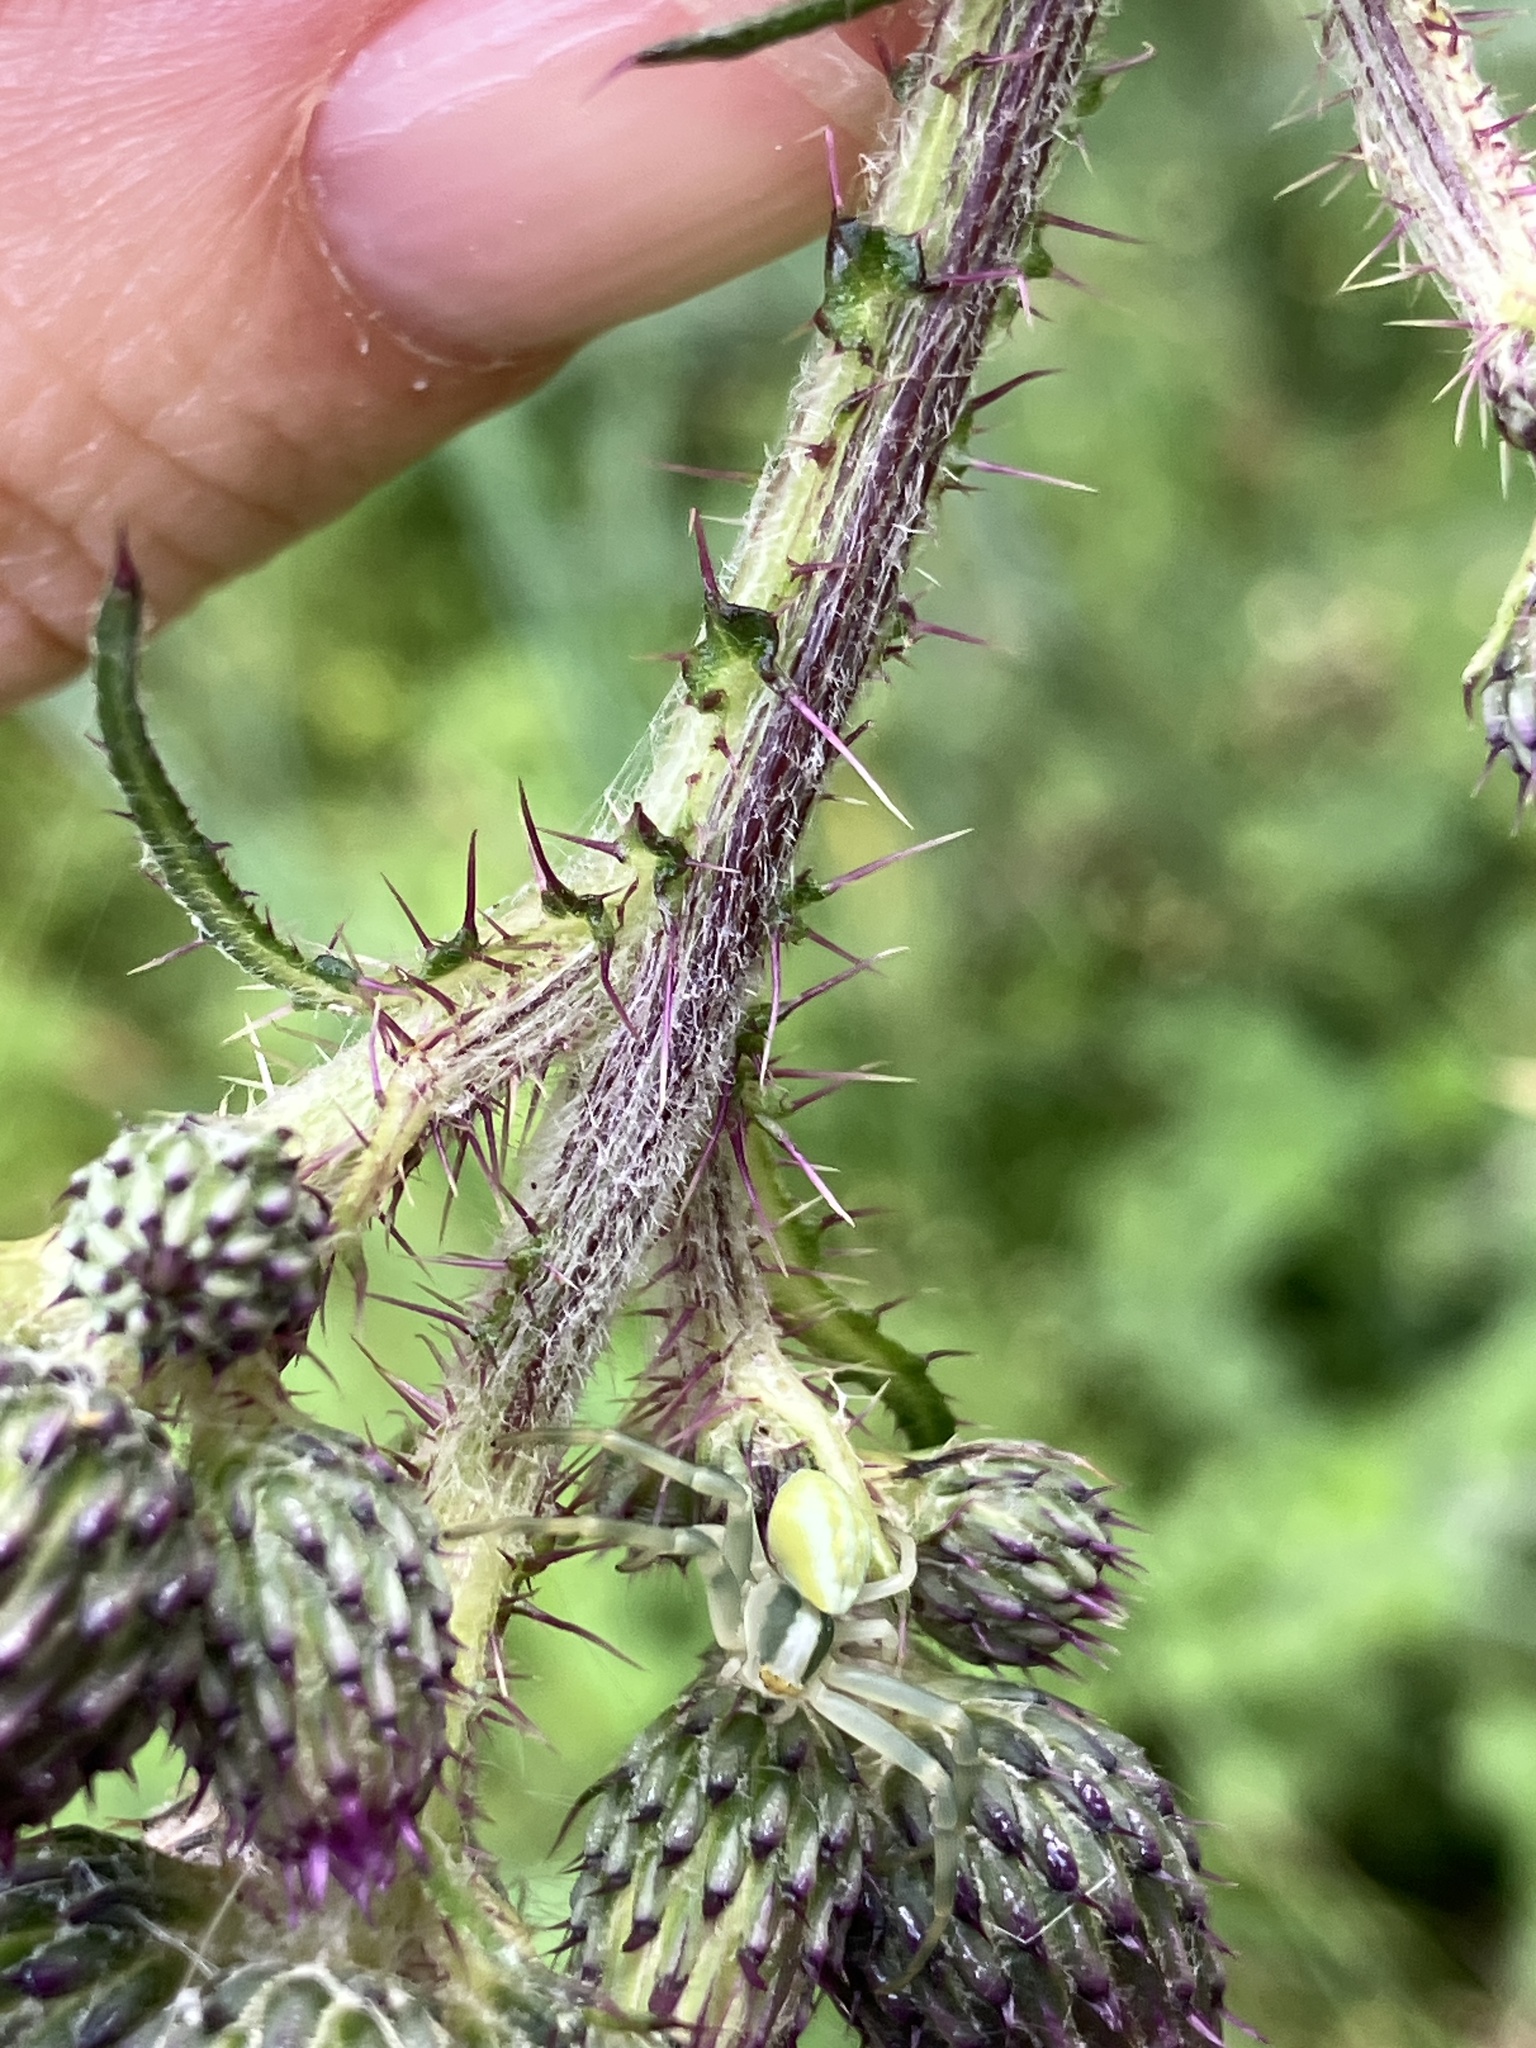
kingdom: Animalia
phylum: Arthropoda
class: Arachnida
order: Araneae
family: Thomisidae
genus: Misumena
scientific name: Misumena vatia
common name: Goldenrod crab spider
